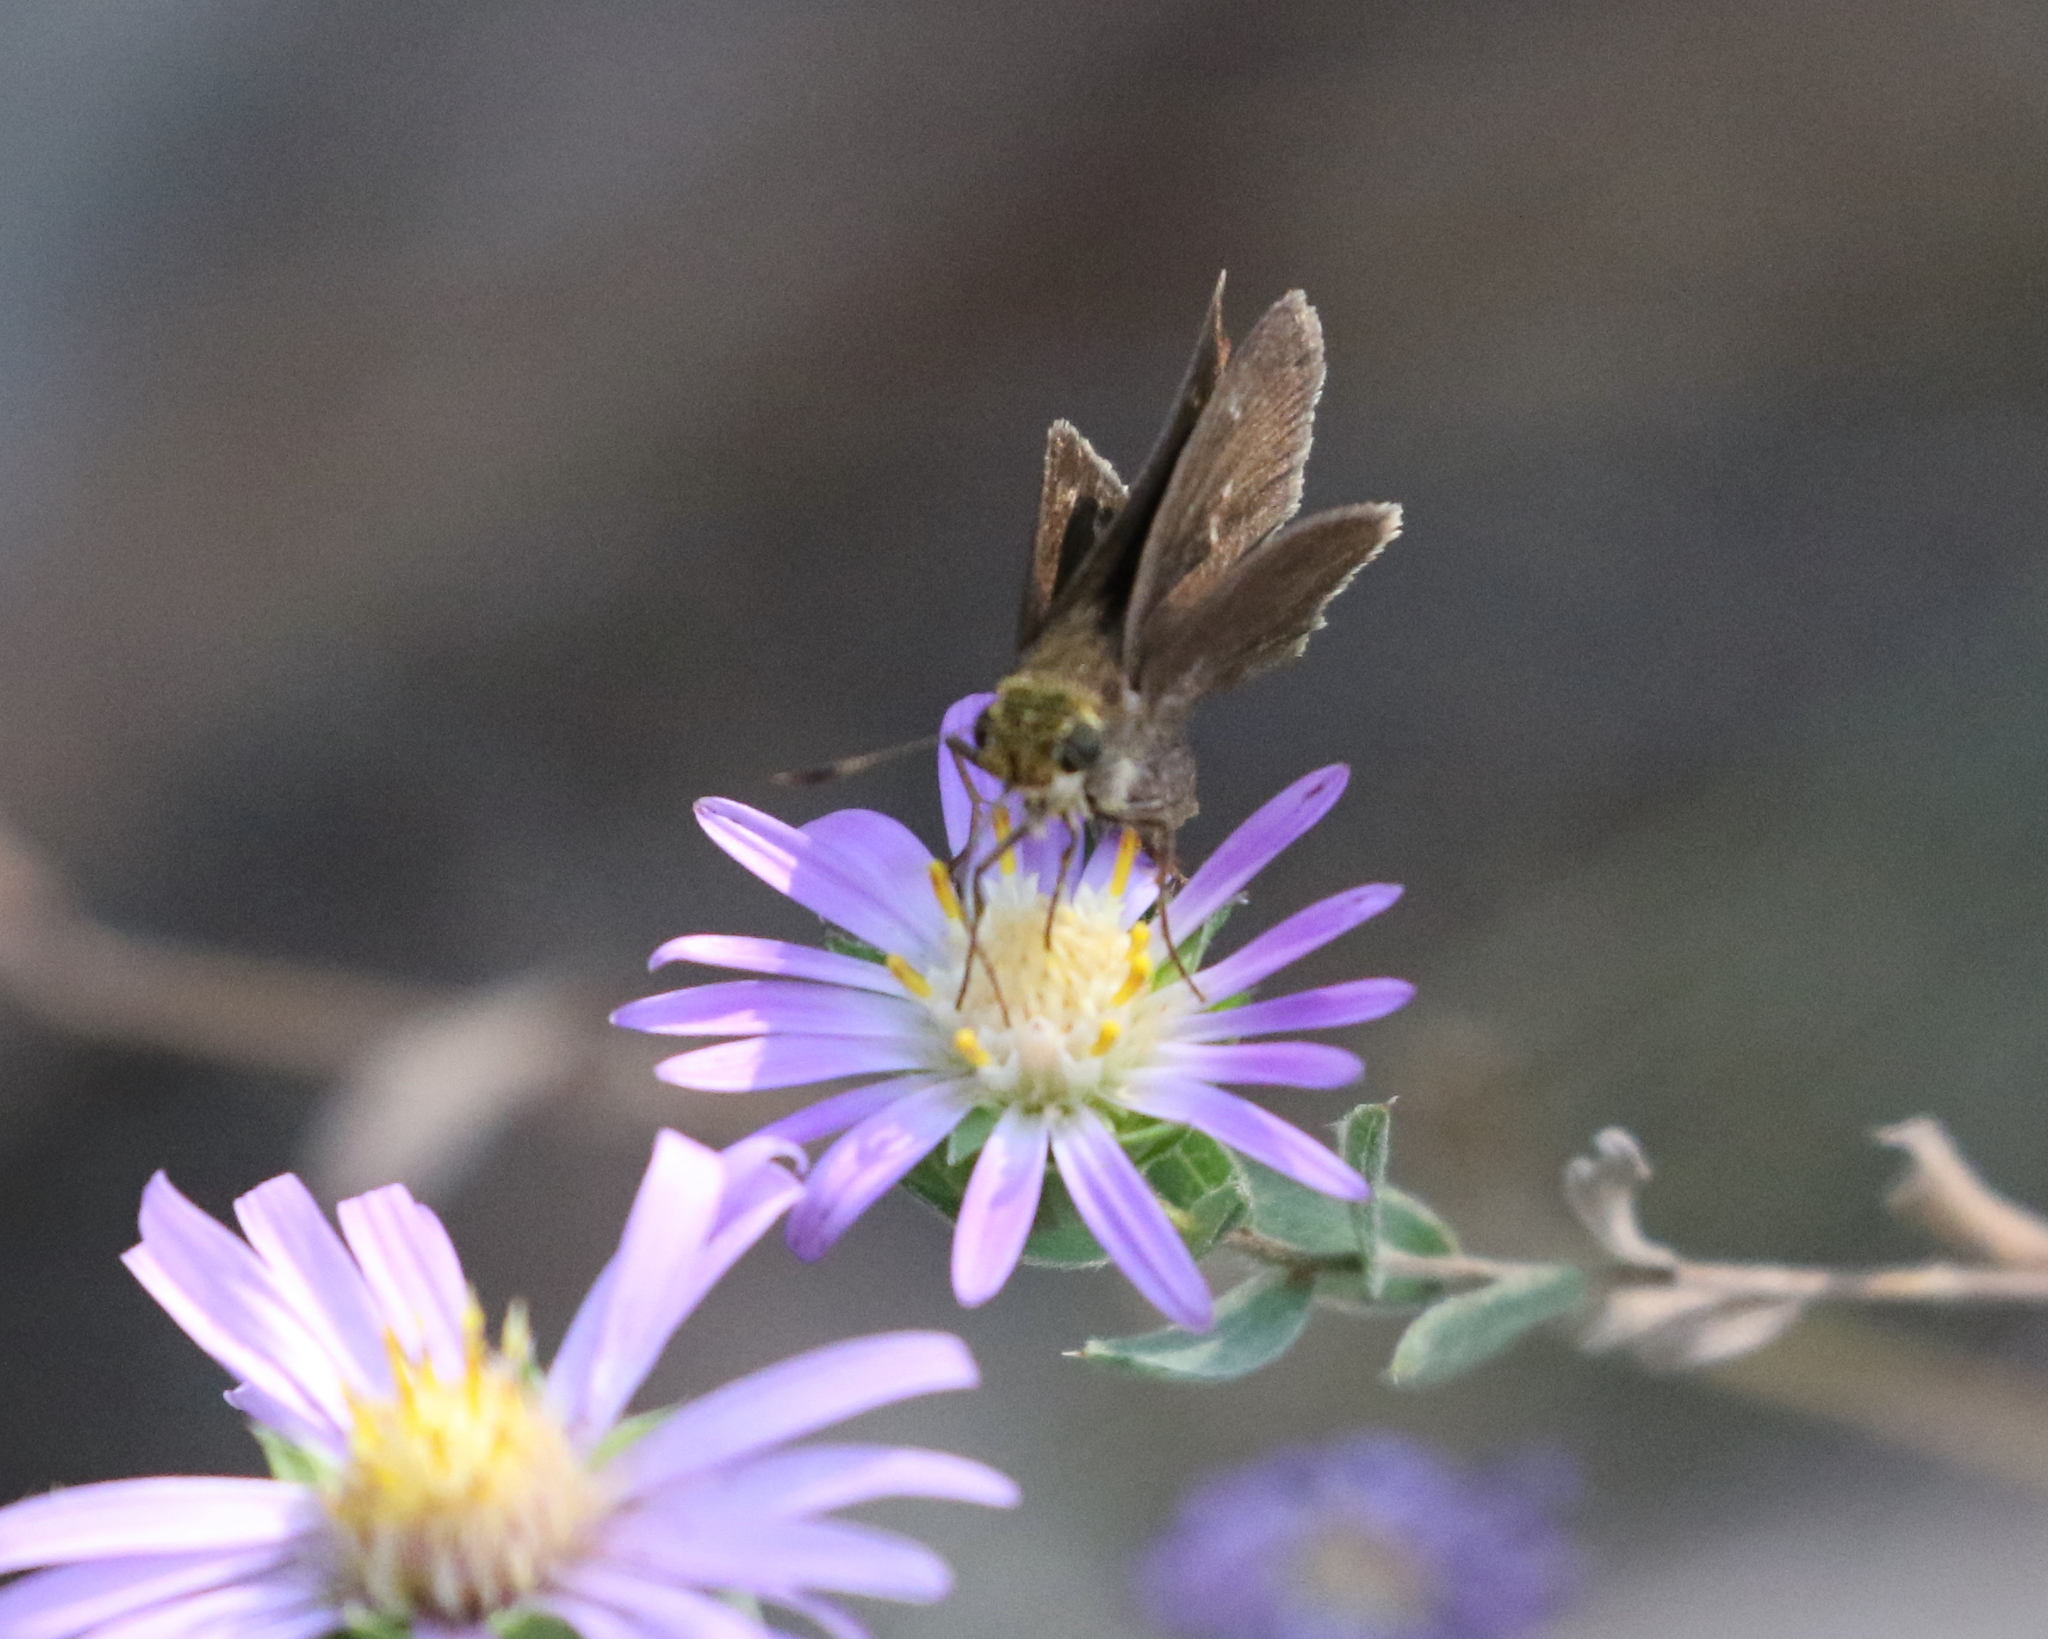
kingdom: Animalia
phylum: Arthropoda
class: Insecta
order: Lepidoptera
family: Hesperiidae
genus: Euphyes
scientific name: Euphyes vestris
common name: Dun skipper
